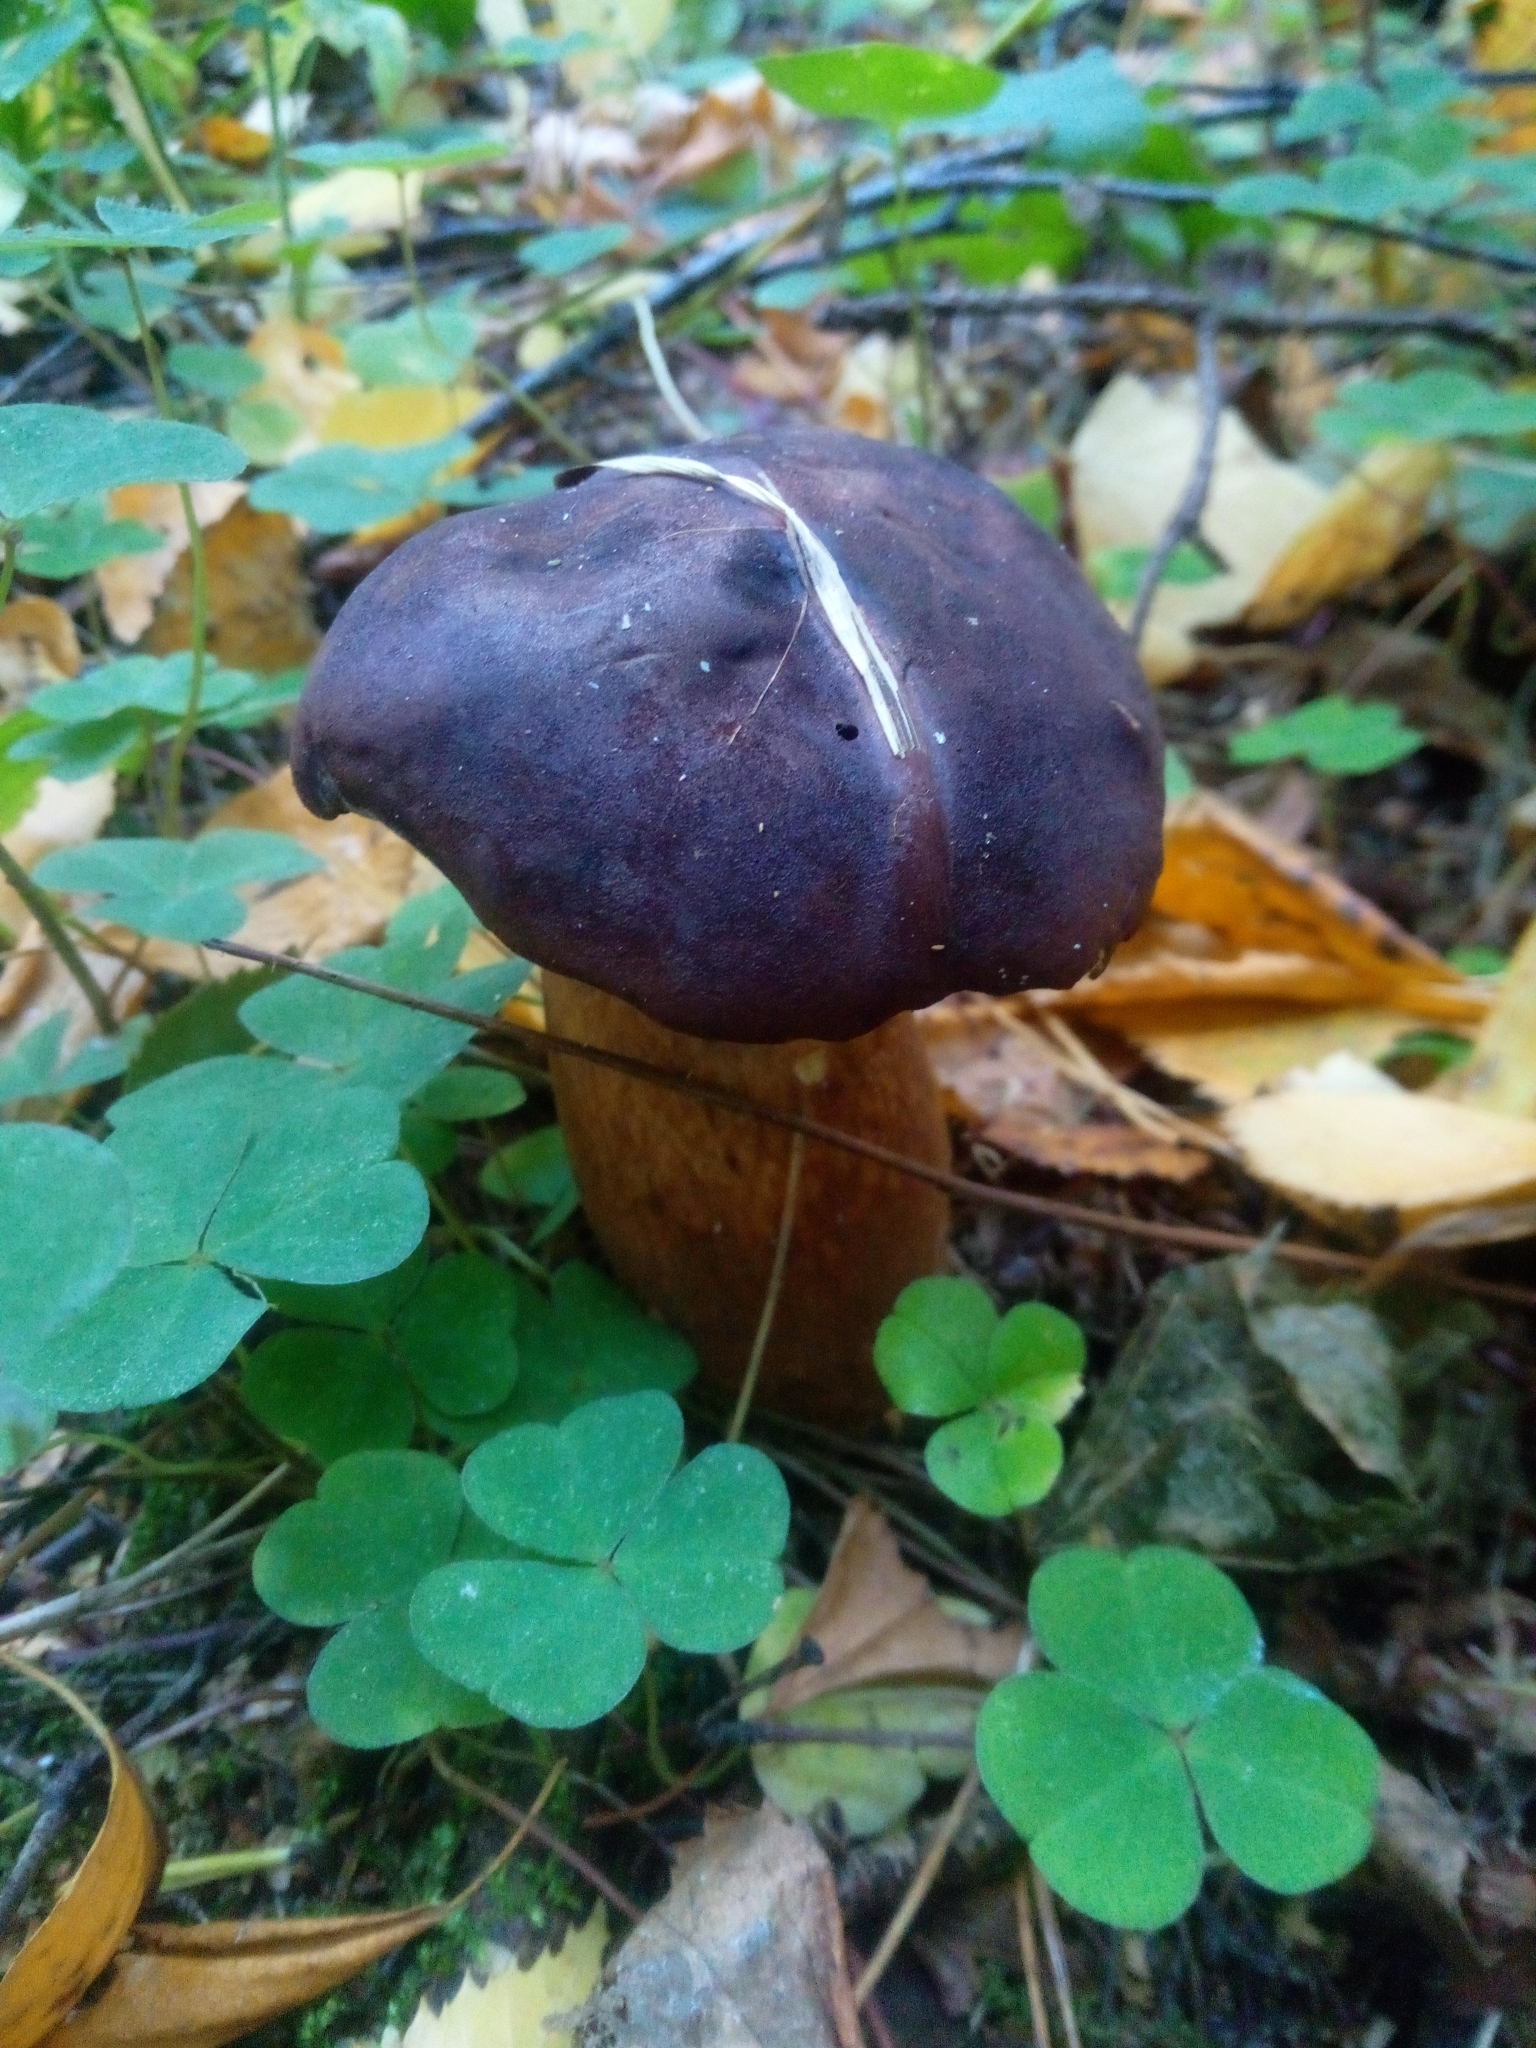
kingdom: Fungi
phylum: Basidiomycota
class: Agaricomycetes
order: Boletales
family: Boletaceae
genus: Imleria
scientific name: Imleria badia
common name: Bay bolete
